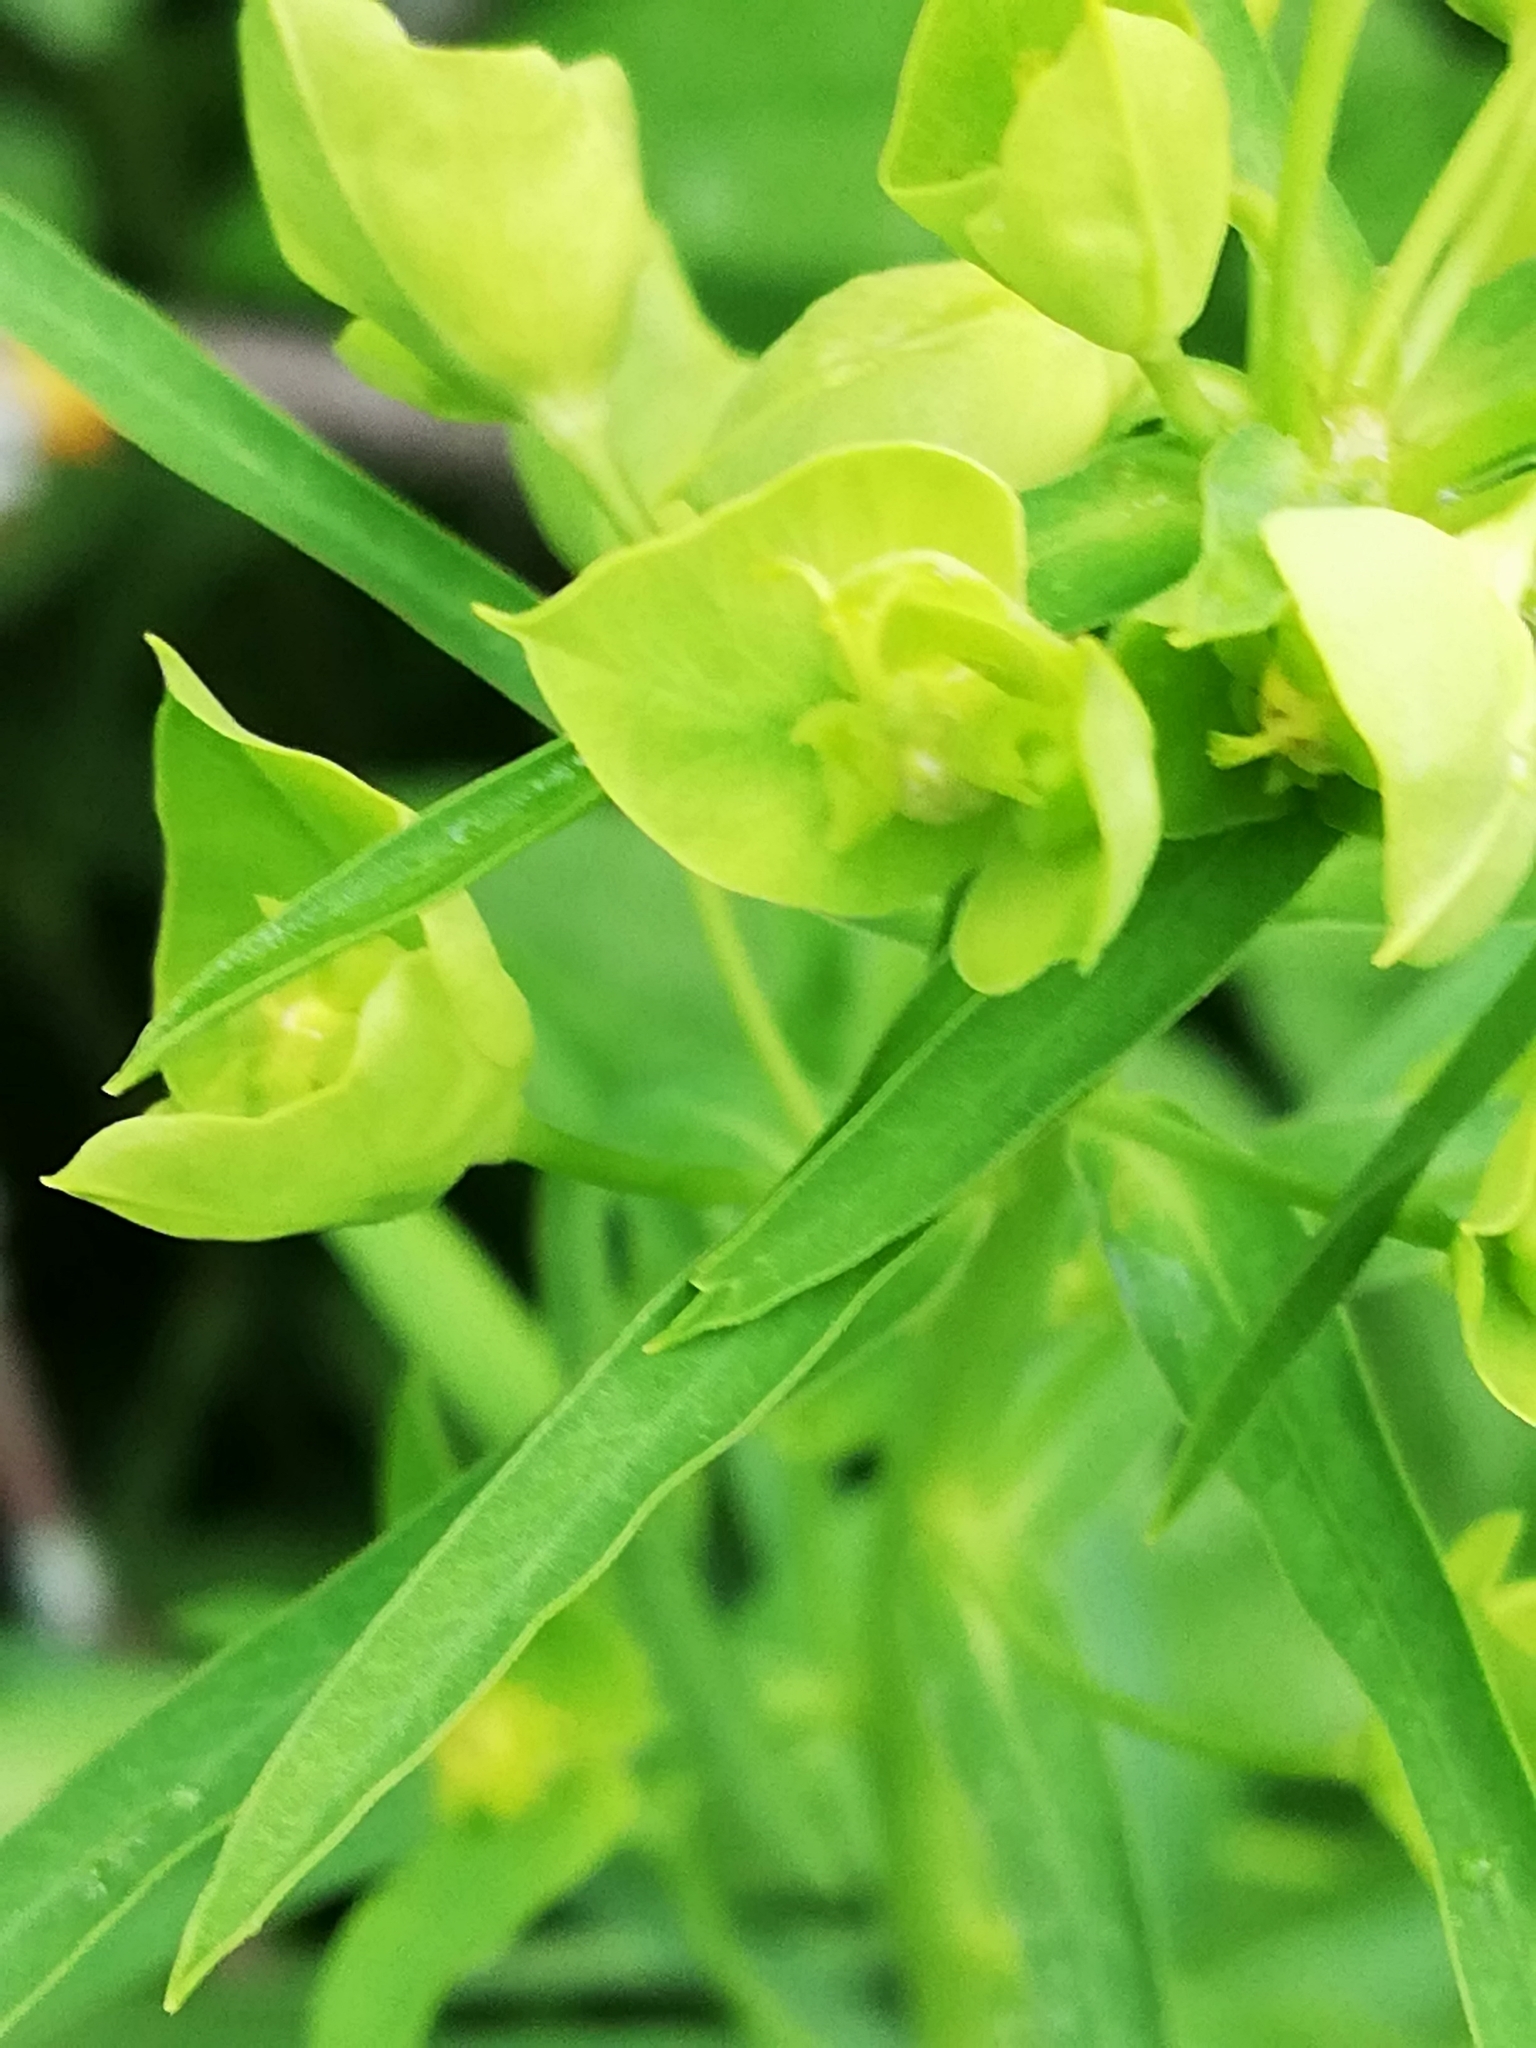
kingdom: Plantae
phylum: Tracheophyta
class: Magnoliopsida
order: Malpighiales
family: Euphorbiaceae
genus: Euphorbia
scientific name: Euphorbia virgata
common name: Leafy spurge
